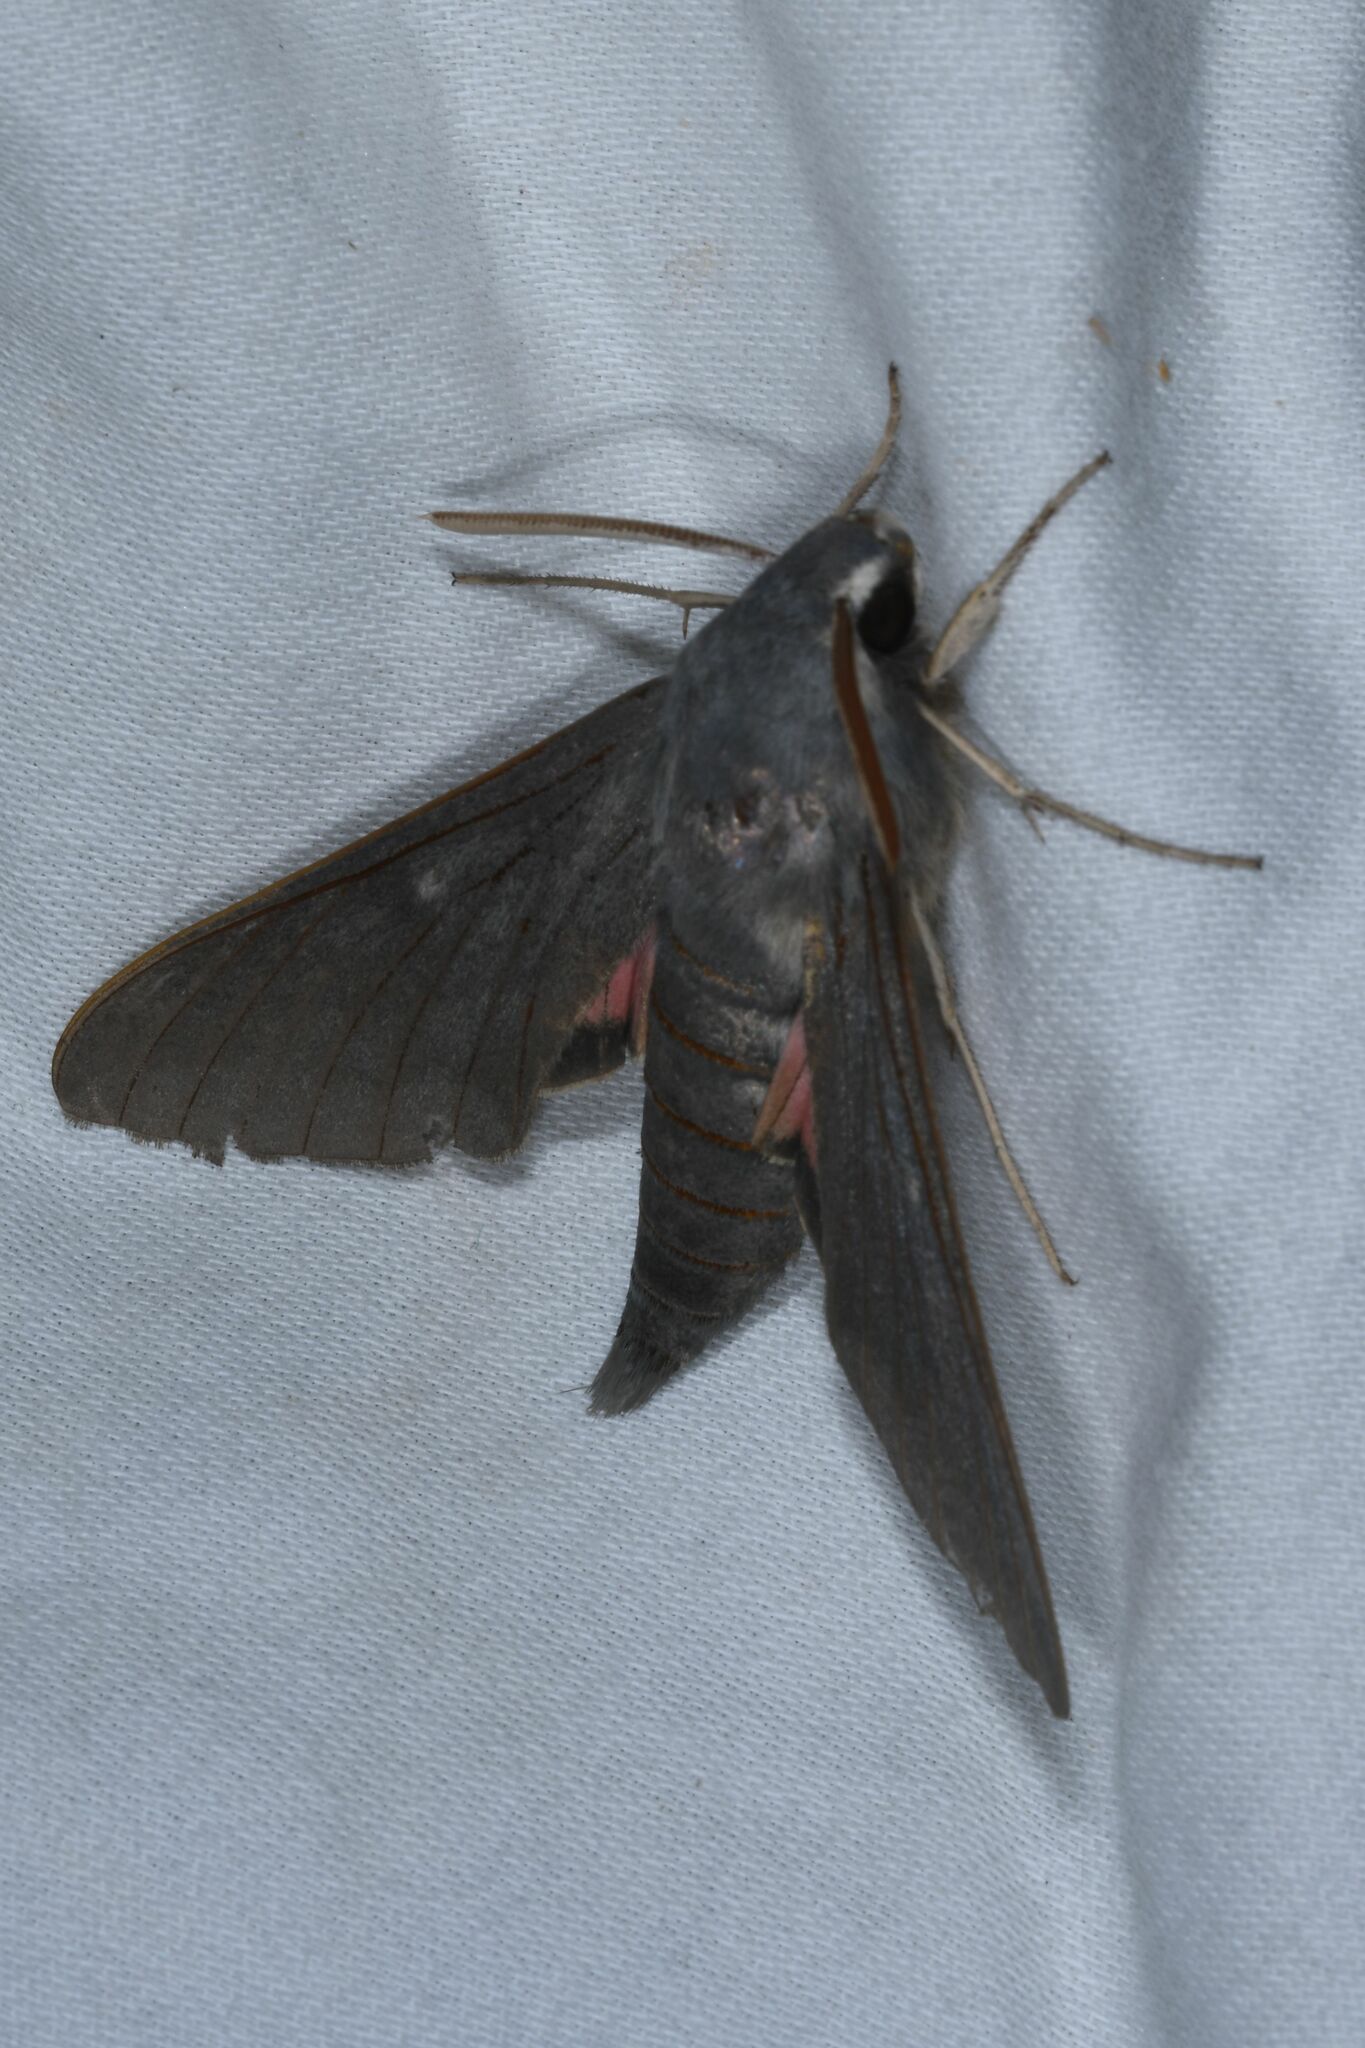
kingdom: Animalia
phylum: Arthropoda
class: Insecta
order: Lepidoptera
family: Sphingidae
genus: Hyles
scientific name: Hyles vespertilio
